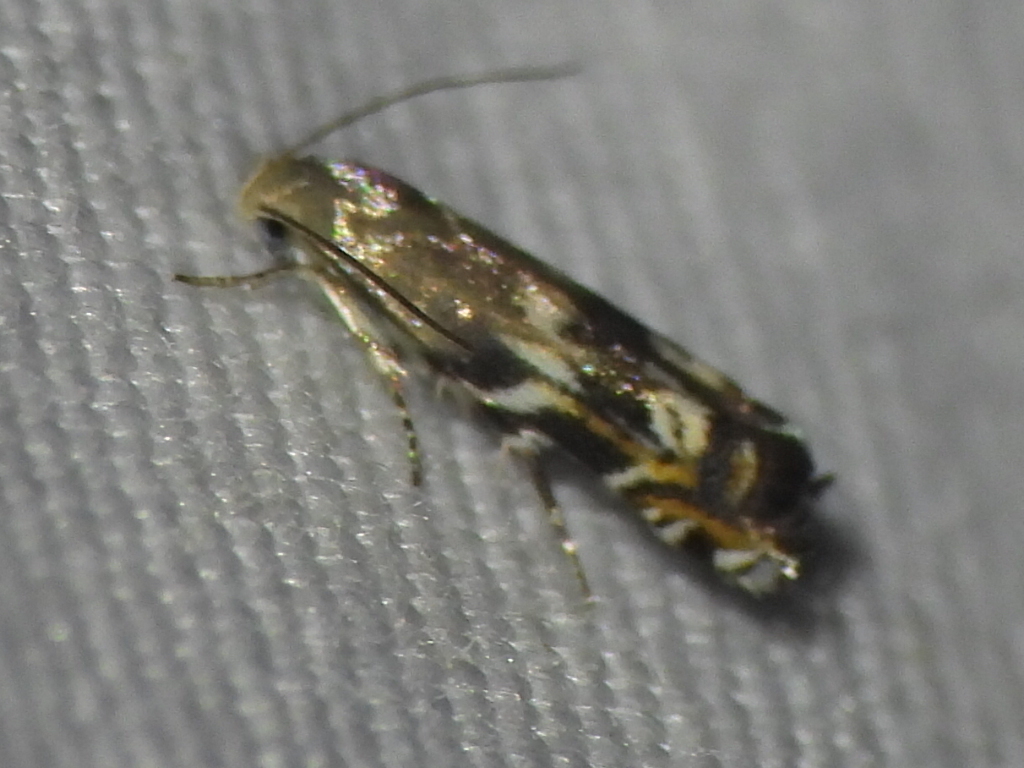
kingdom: Animalia
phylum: Arthropoda
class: Insecta
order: Lepidoptera
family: Gelechiidae
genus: Calliprora
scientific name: Calliprora sexstrigella
